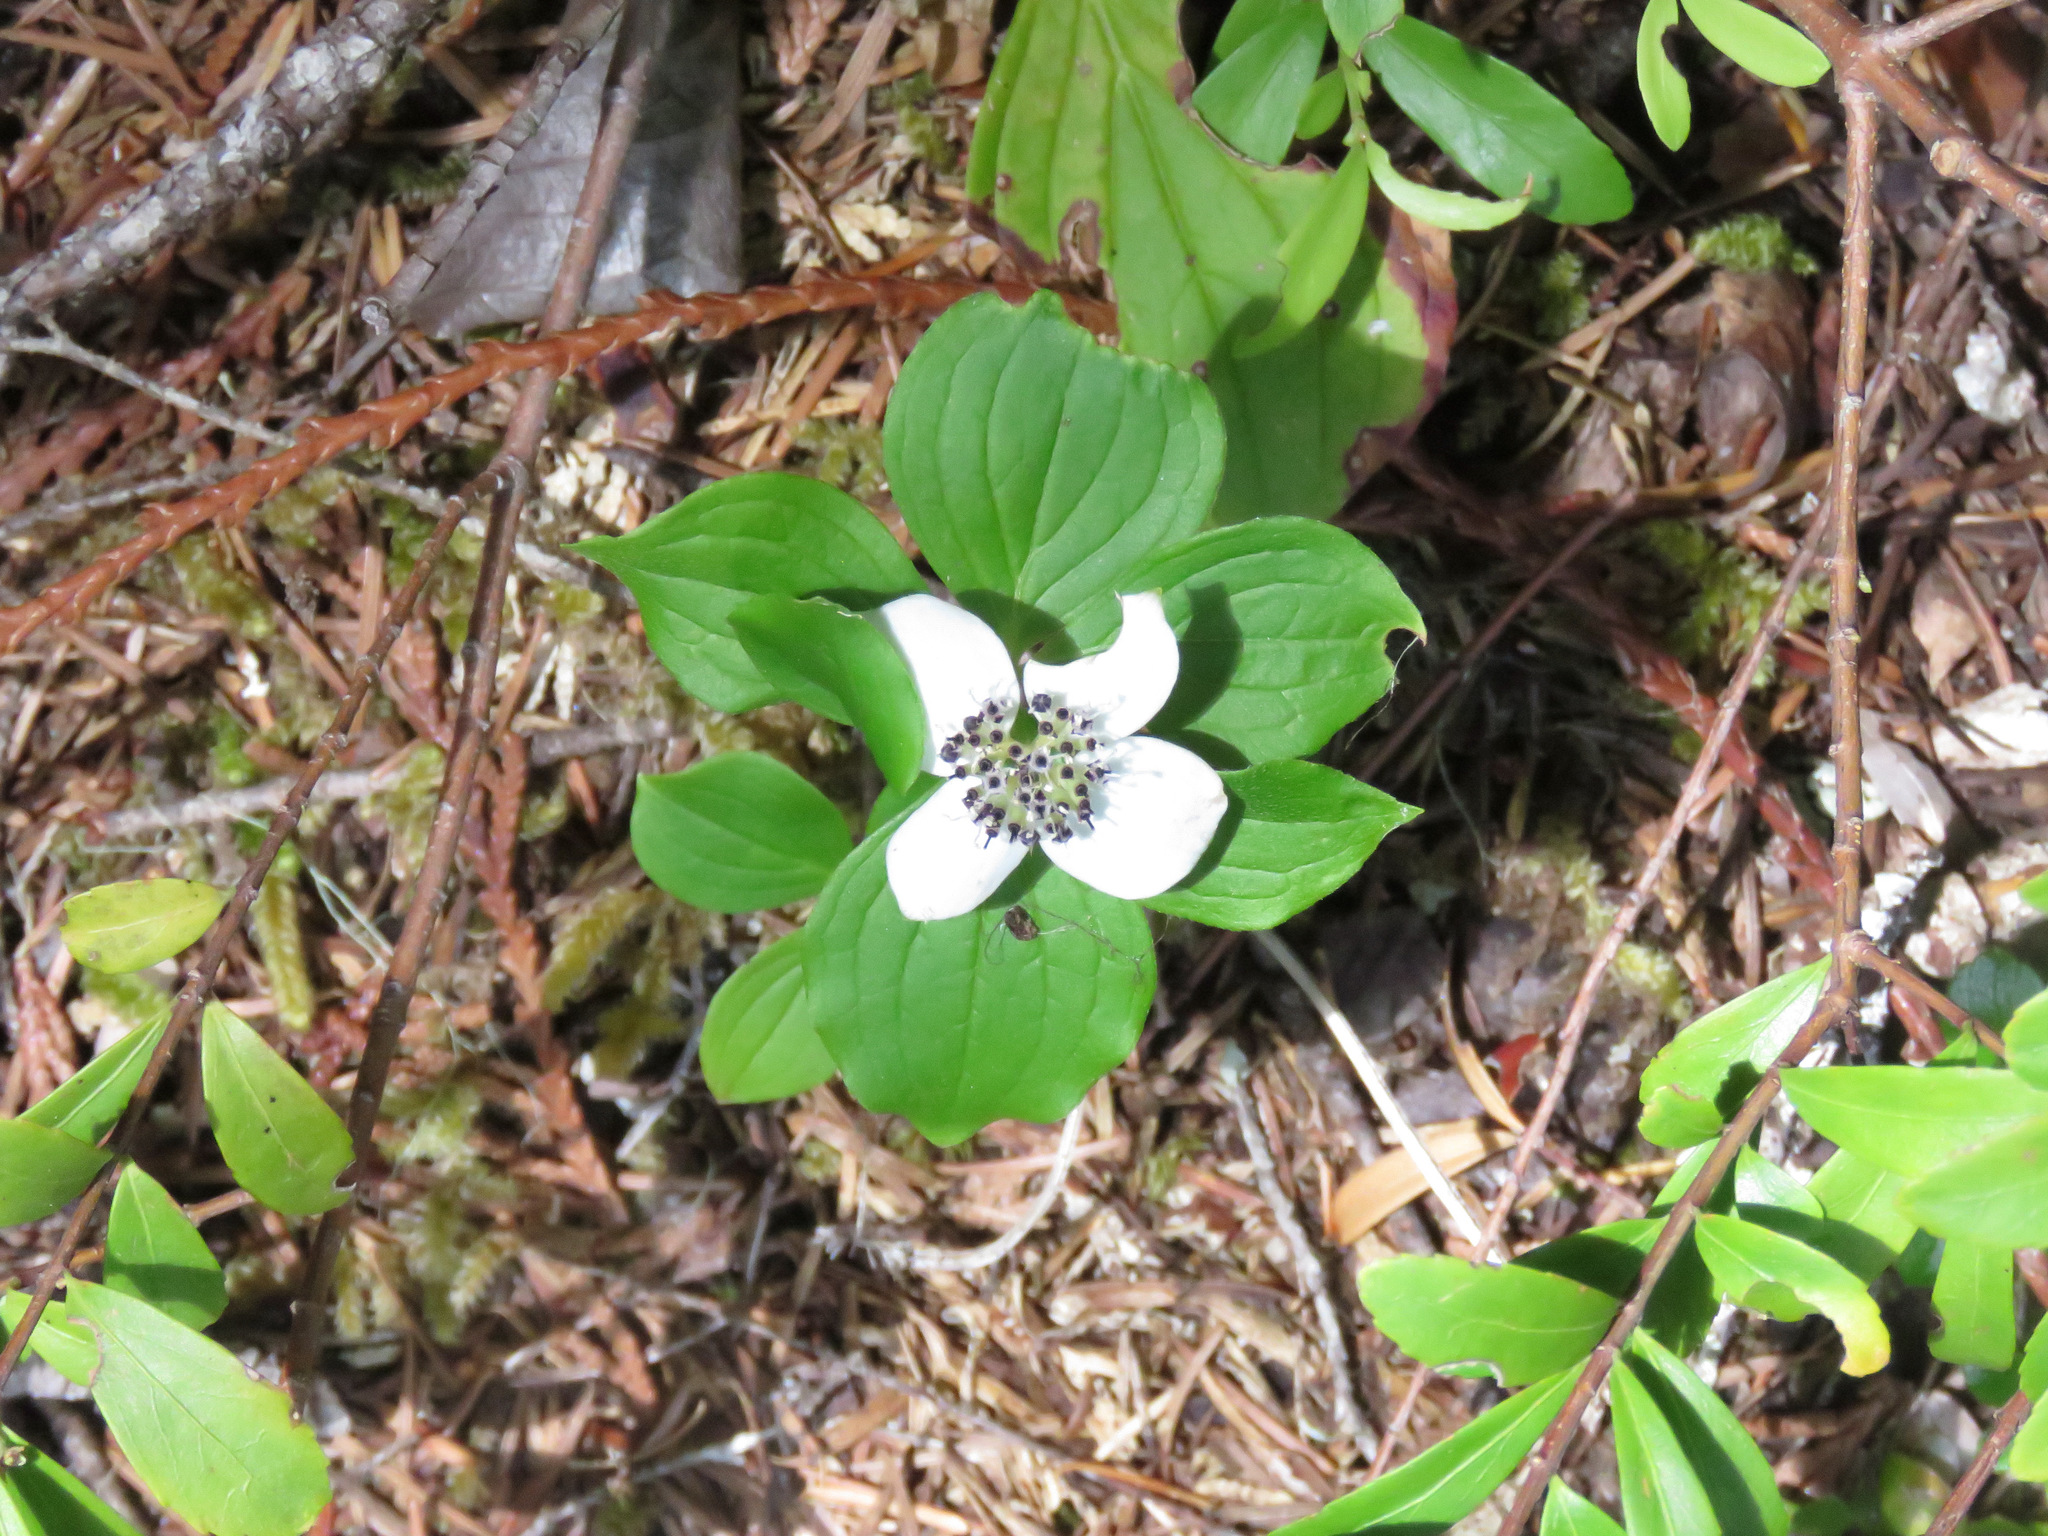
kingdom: Plantae
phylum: Tracheophyta
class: Magnoliopsida
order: Cornales
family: Cornaceae
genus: Cornus
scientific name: Cornus unalaschkensis
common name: Alaska bunchberry
